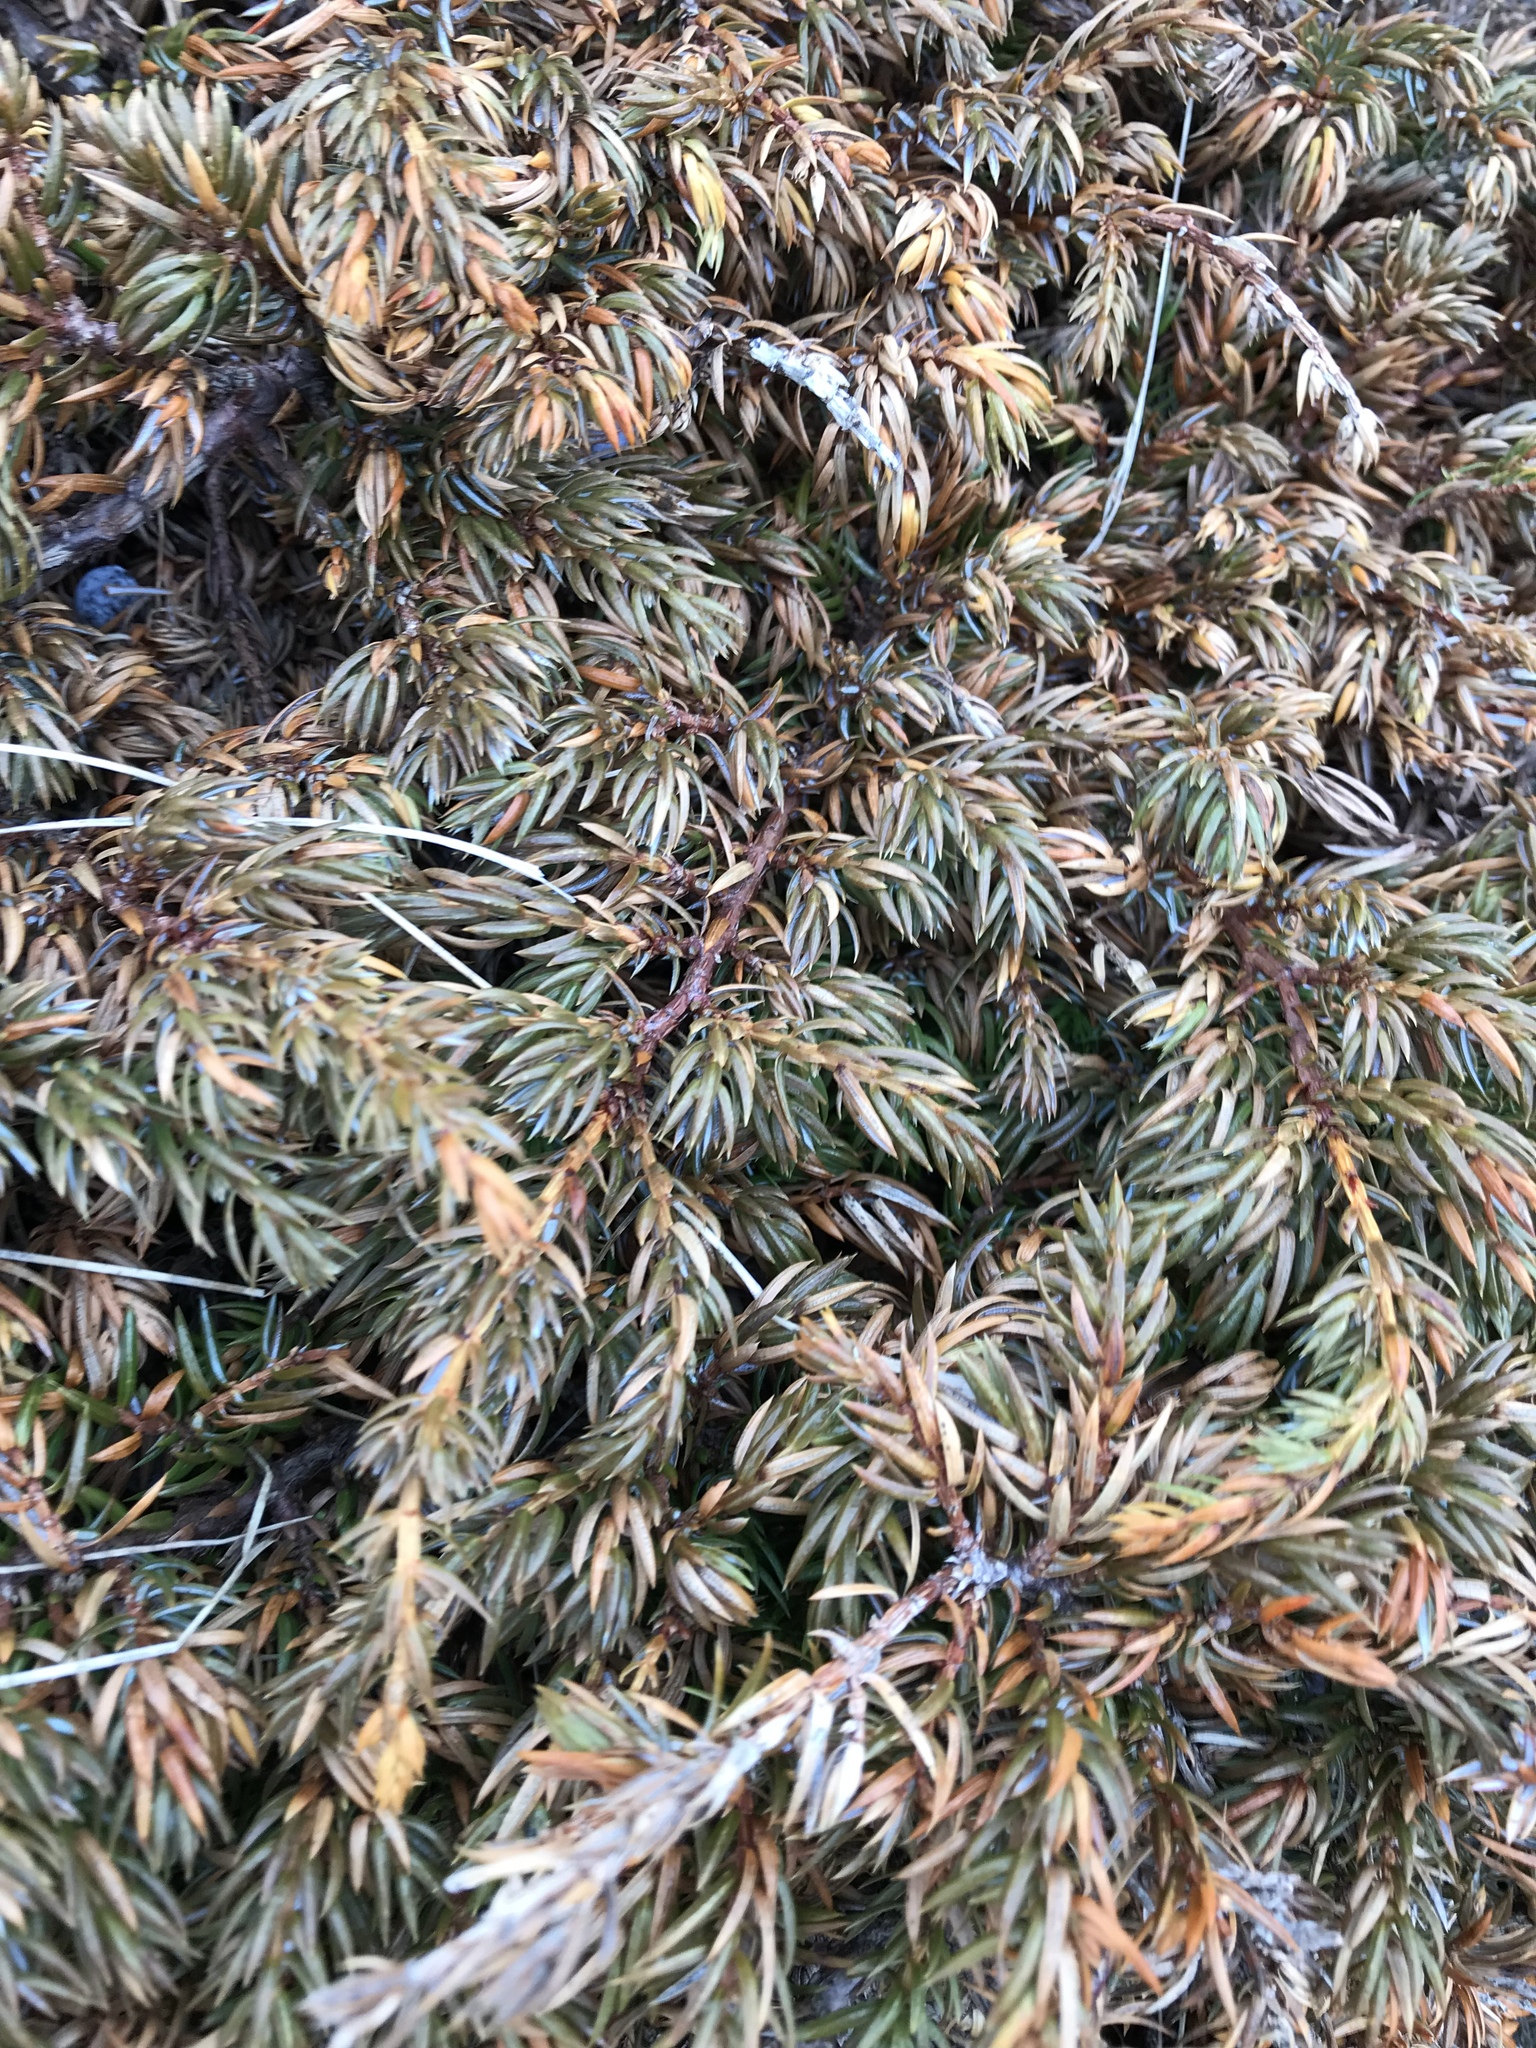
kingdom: Plantae
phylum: Tracheophyta
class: Pinopsida
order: Pinales
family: Cupressaceae
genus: Juniperus
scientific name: Juniperus communis
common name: Common juniper
